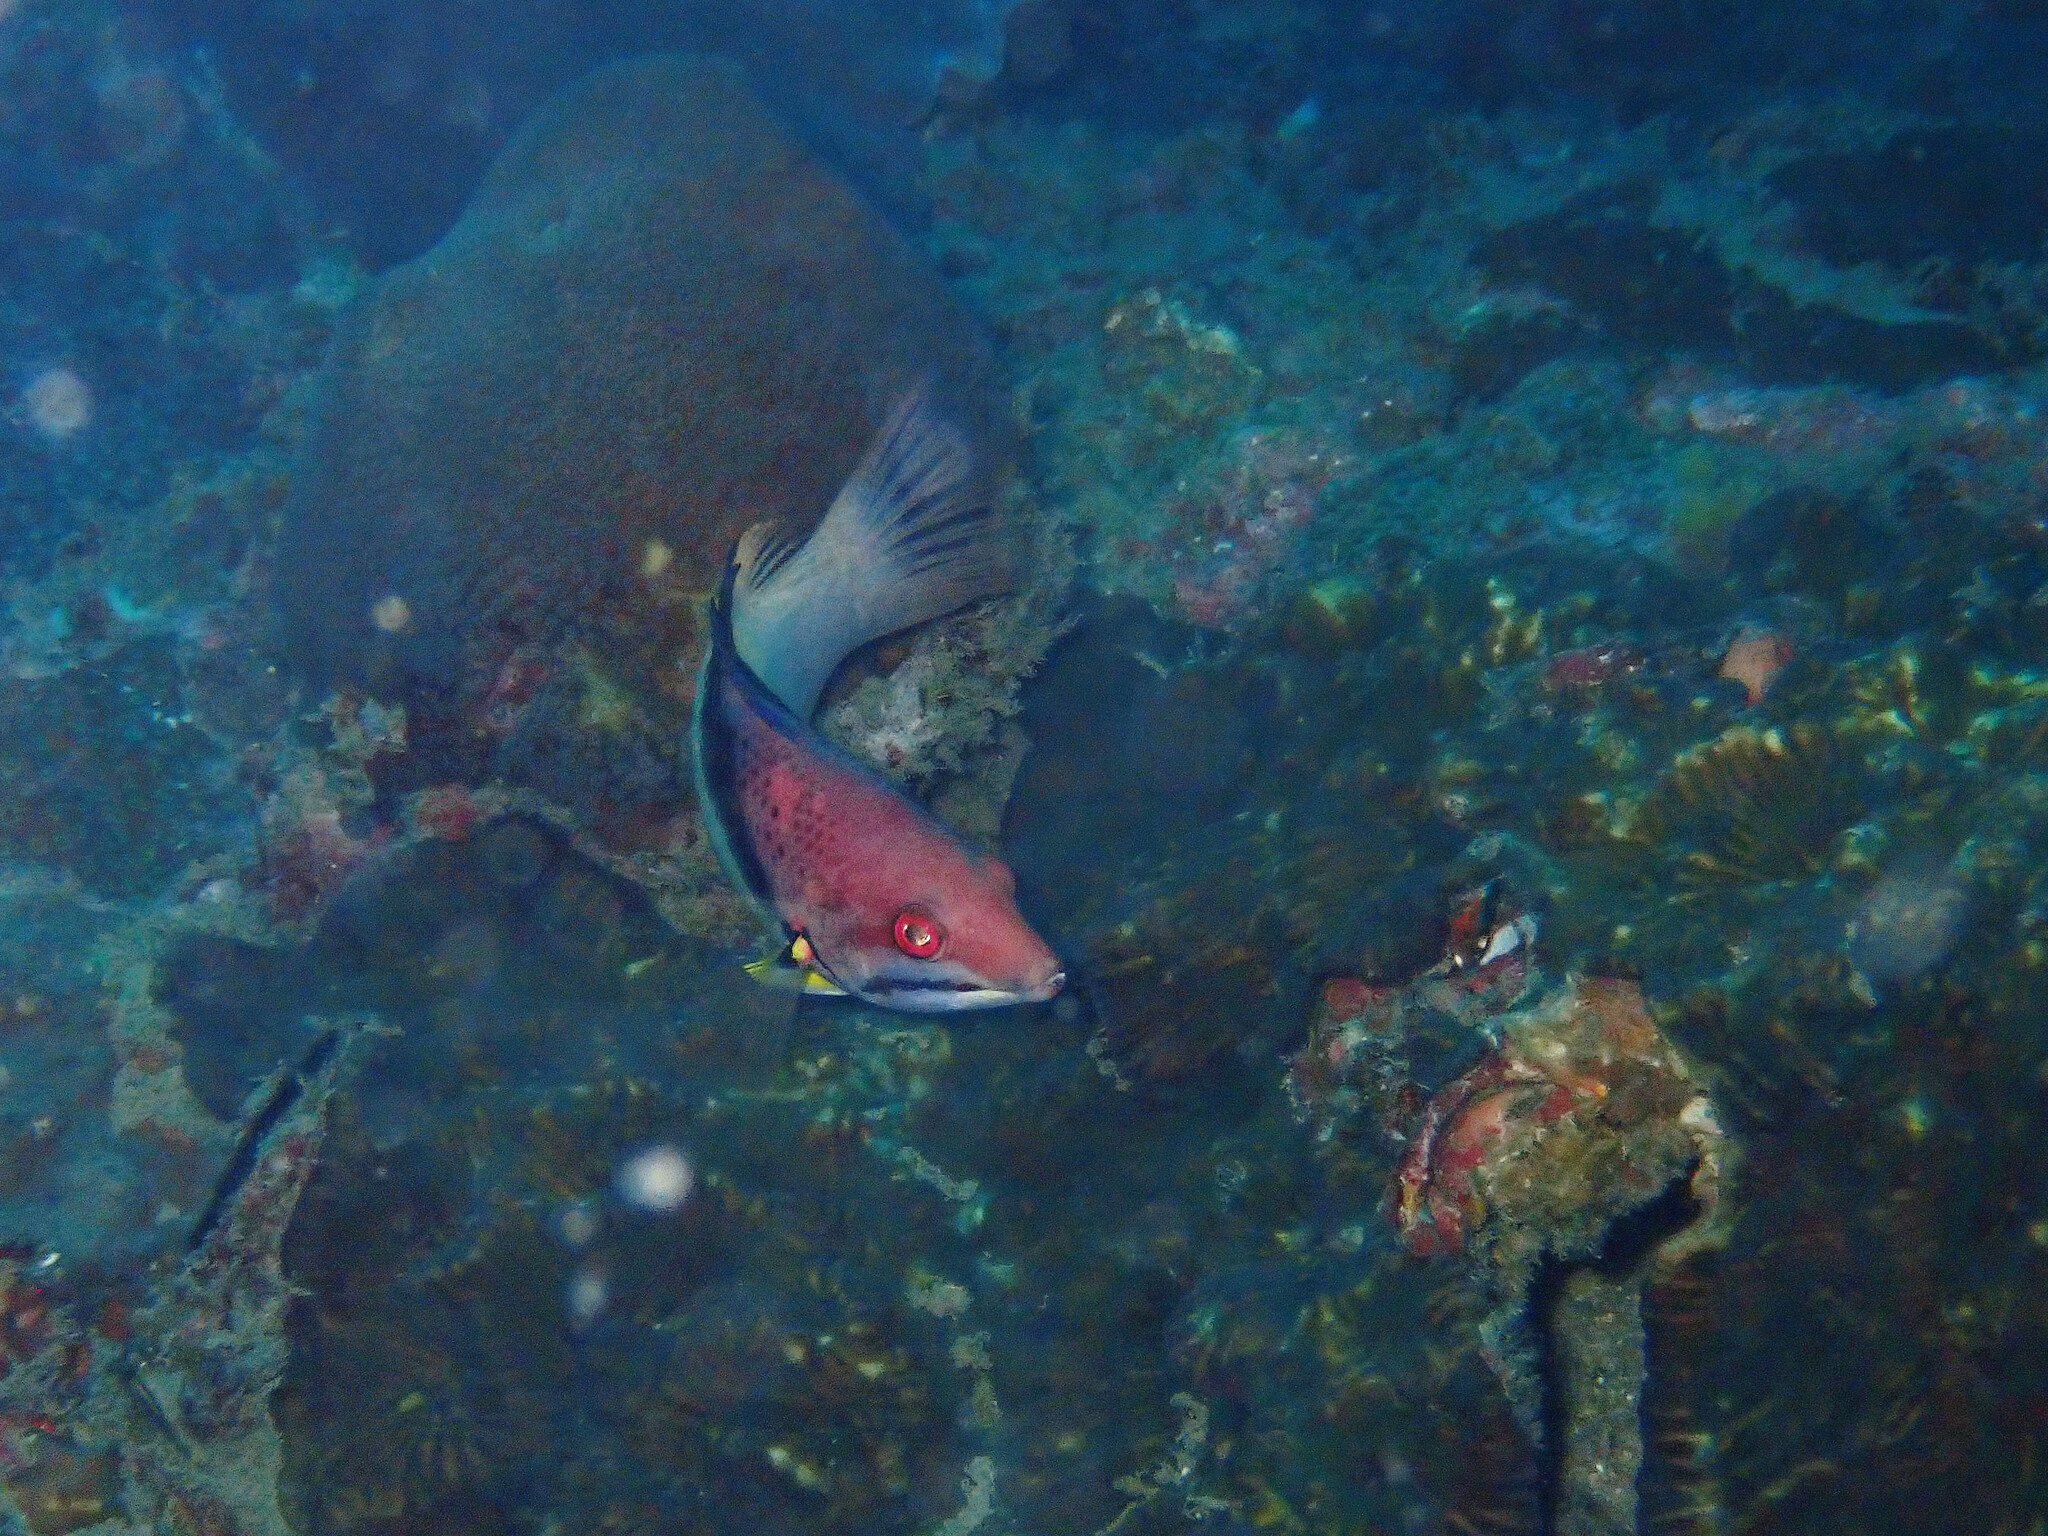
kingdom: Animalia
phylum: Chordata
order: Perciformes
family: Labridae
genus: Bodianus
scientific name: Bodianus mesothorax
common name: Coral hogfish
